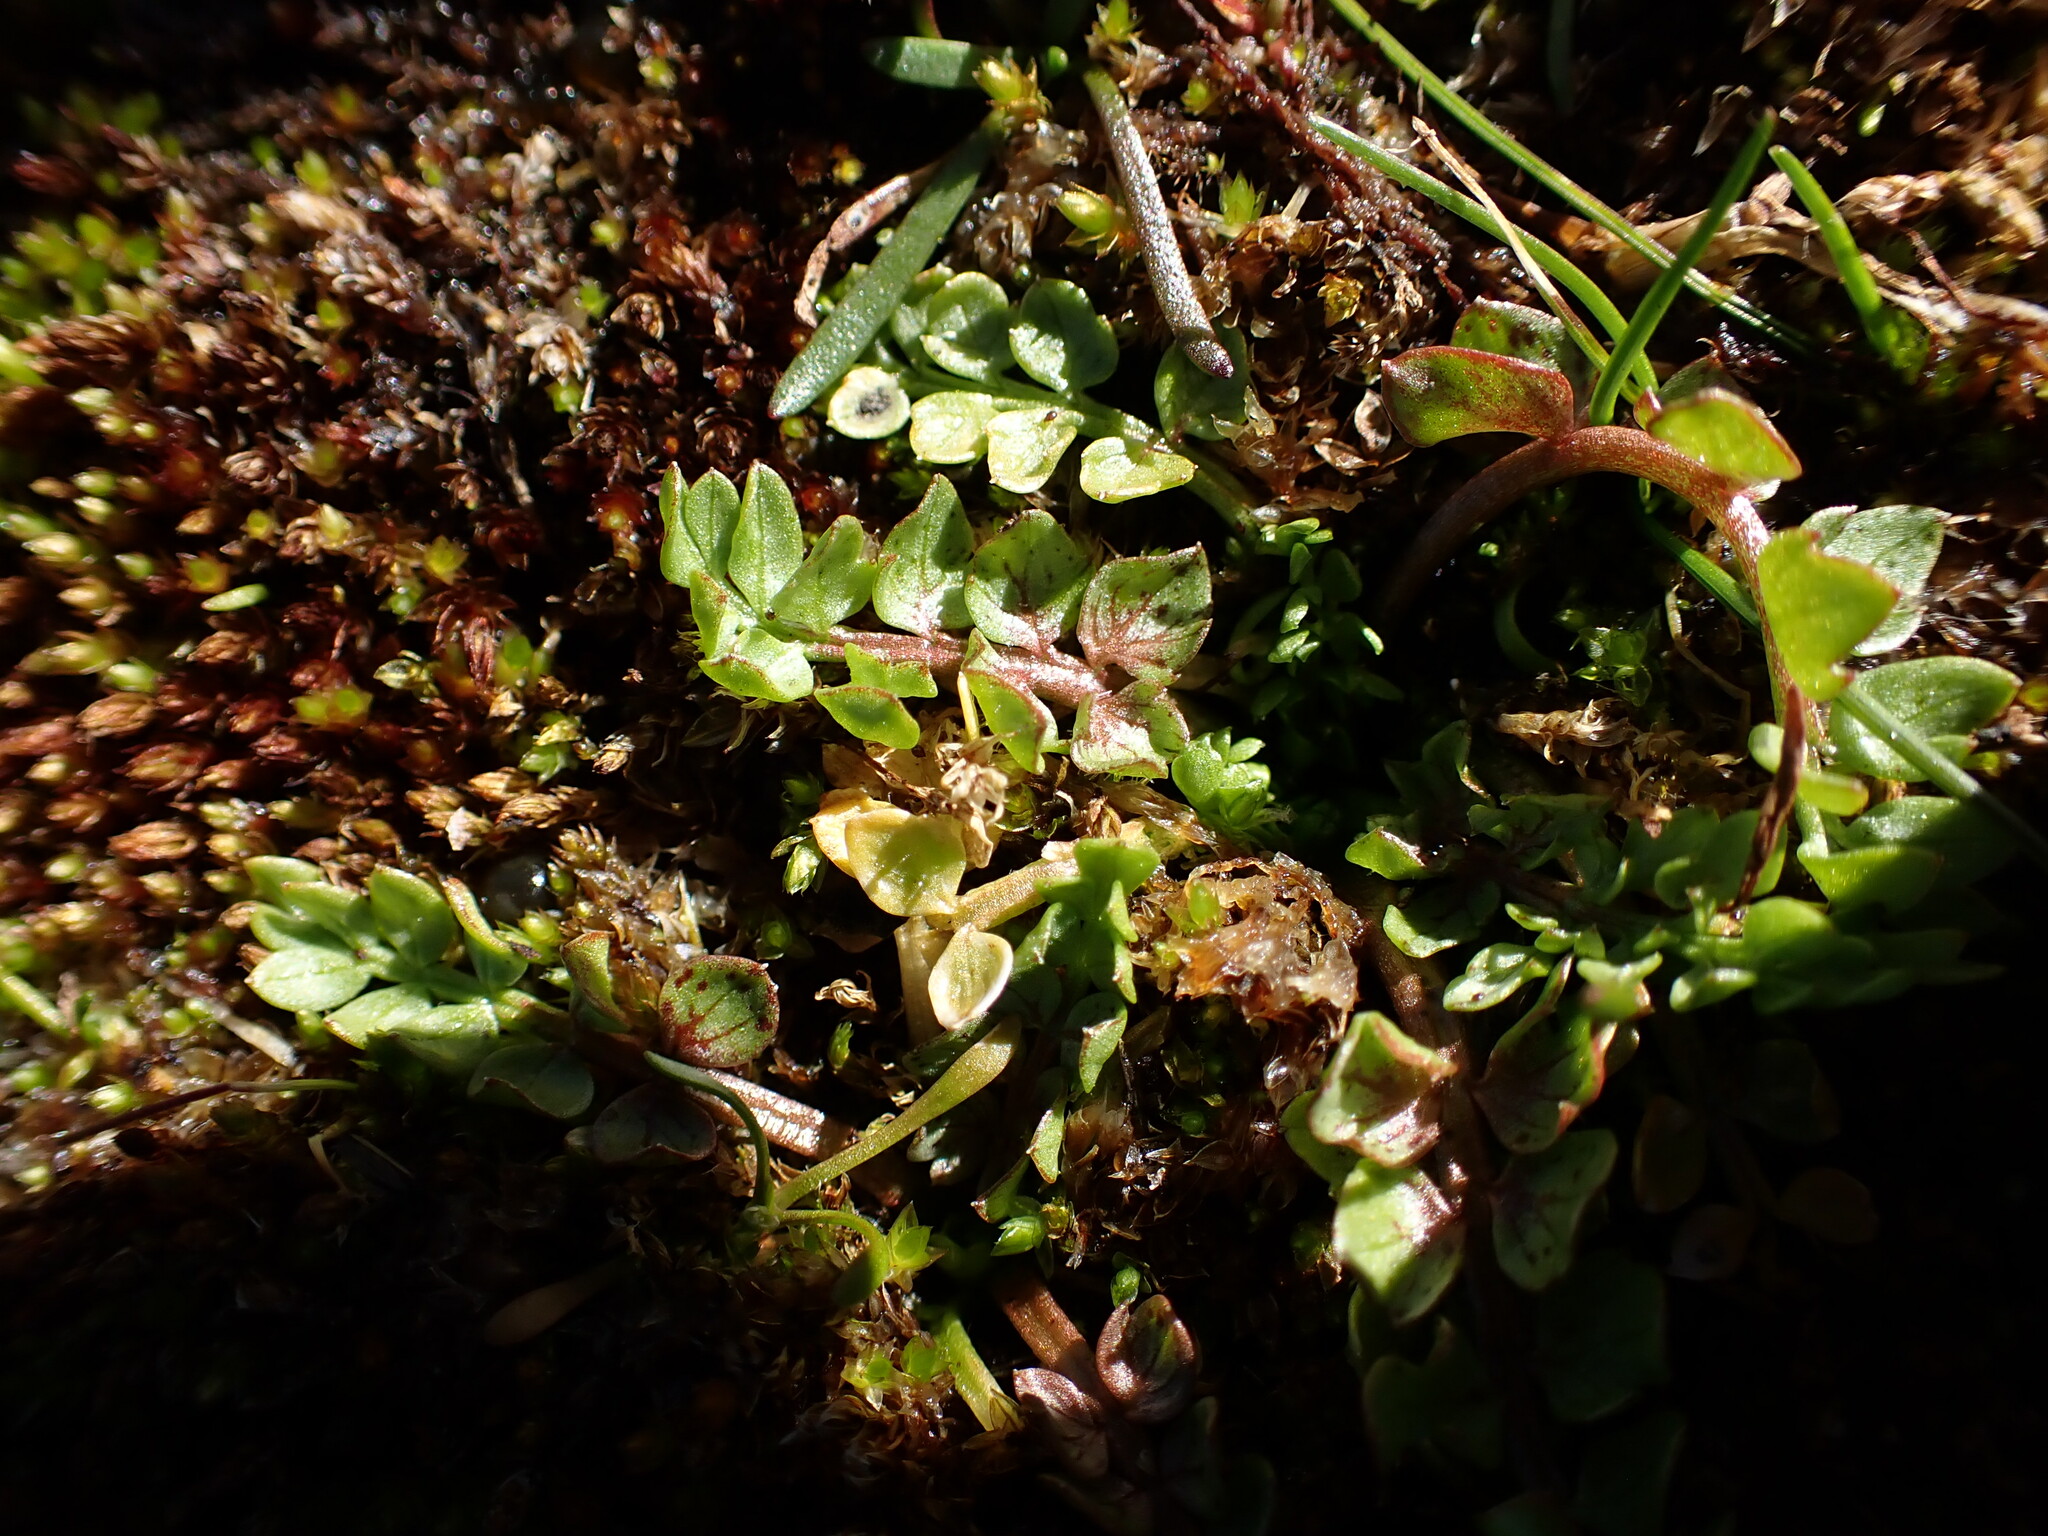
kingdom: Plantae
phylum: Tracheophyta
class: Magnoliopsida
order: Brassicales
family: Limnanthaceae
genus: Limnanthes
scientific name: Limnanthes macounii
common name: Macoun's meadowfoam
